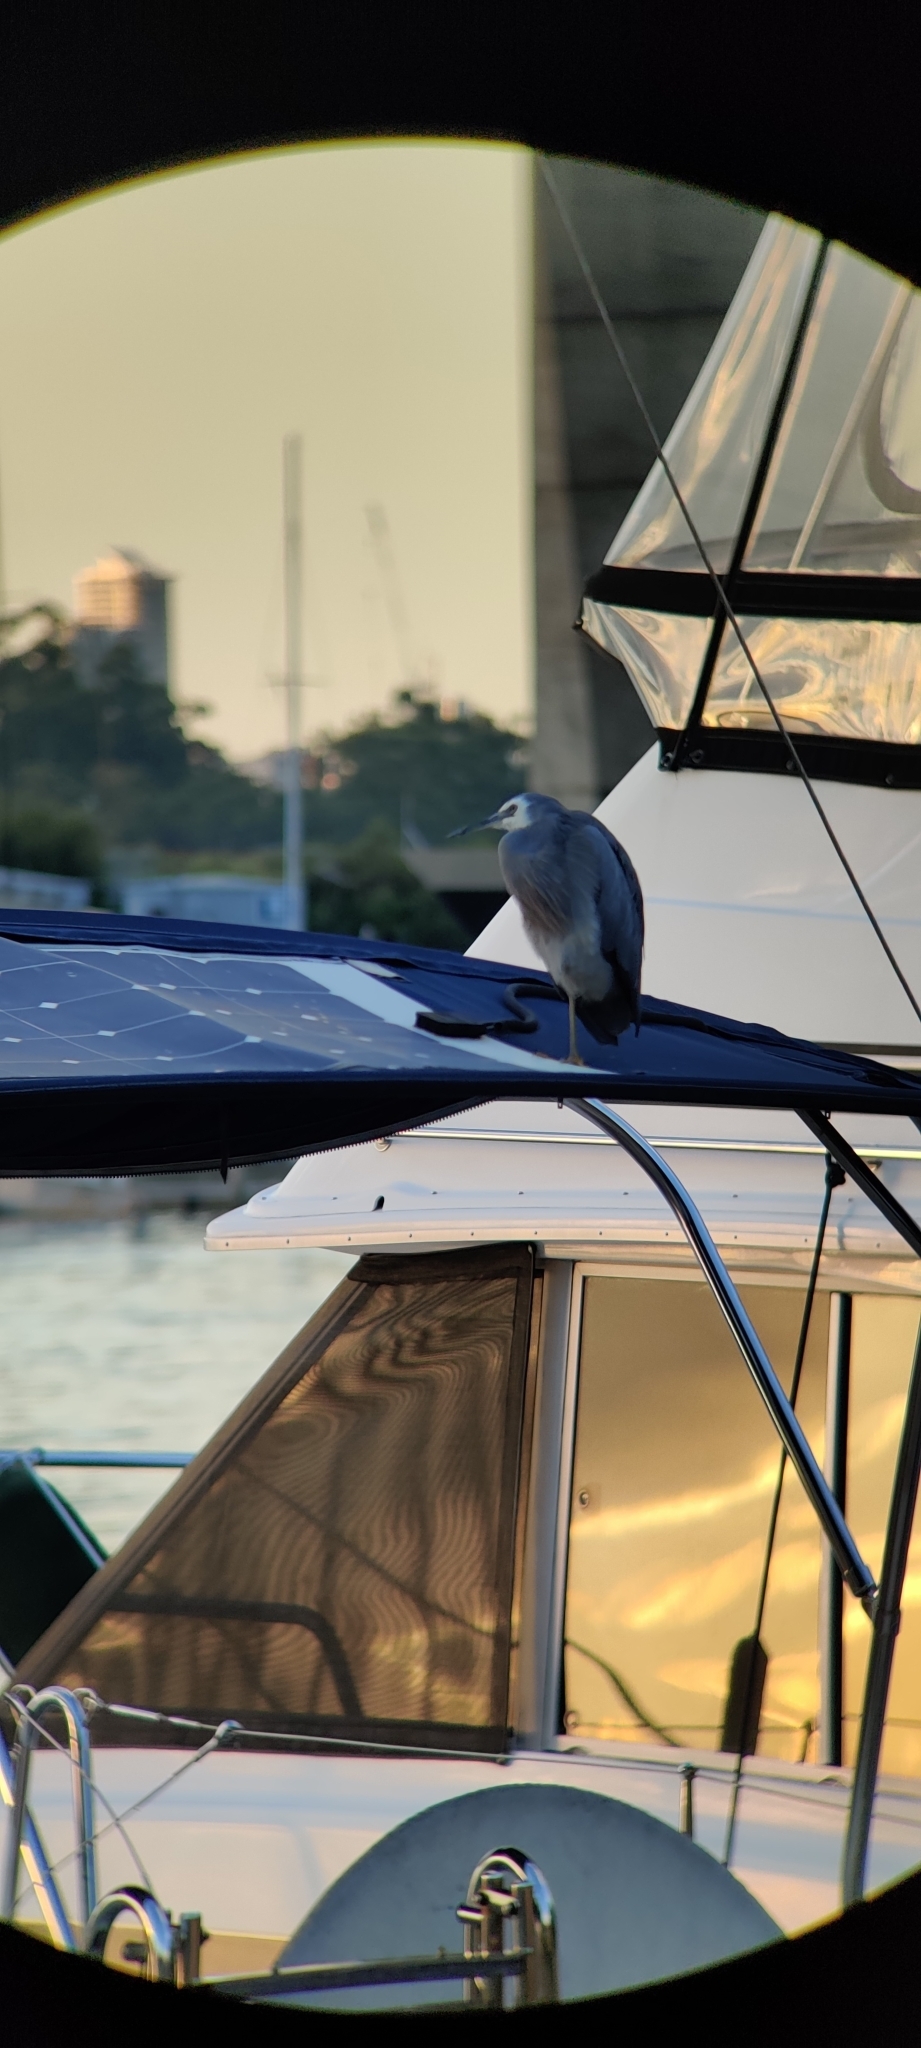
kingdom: Animalia
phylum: Chordata
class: Aves
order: Pelecaniformes
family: Ardeidae
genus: Egretta
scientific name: Egretta novaehollandiae
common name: White-faced heron
